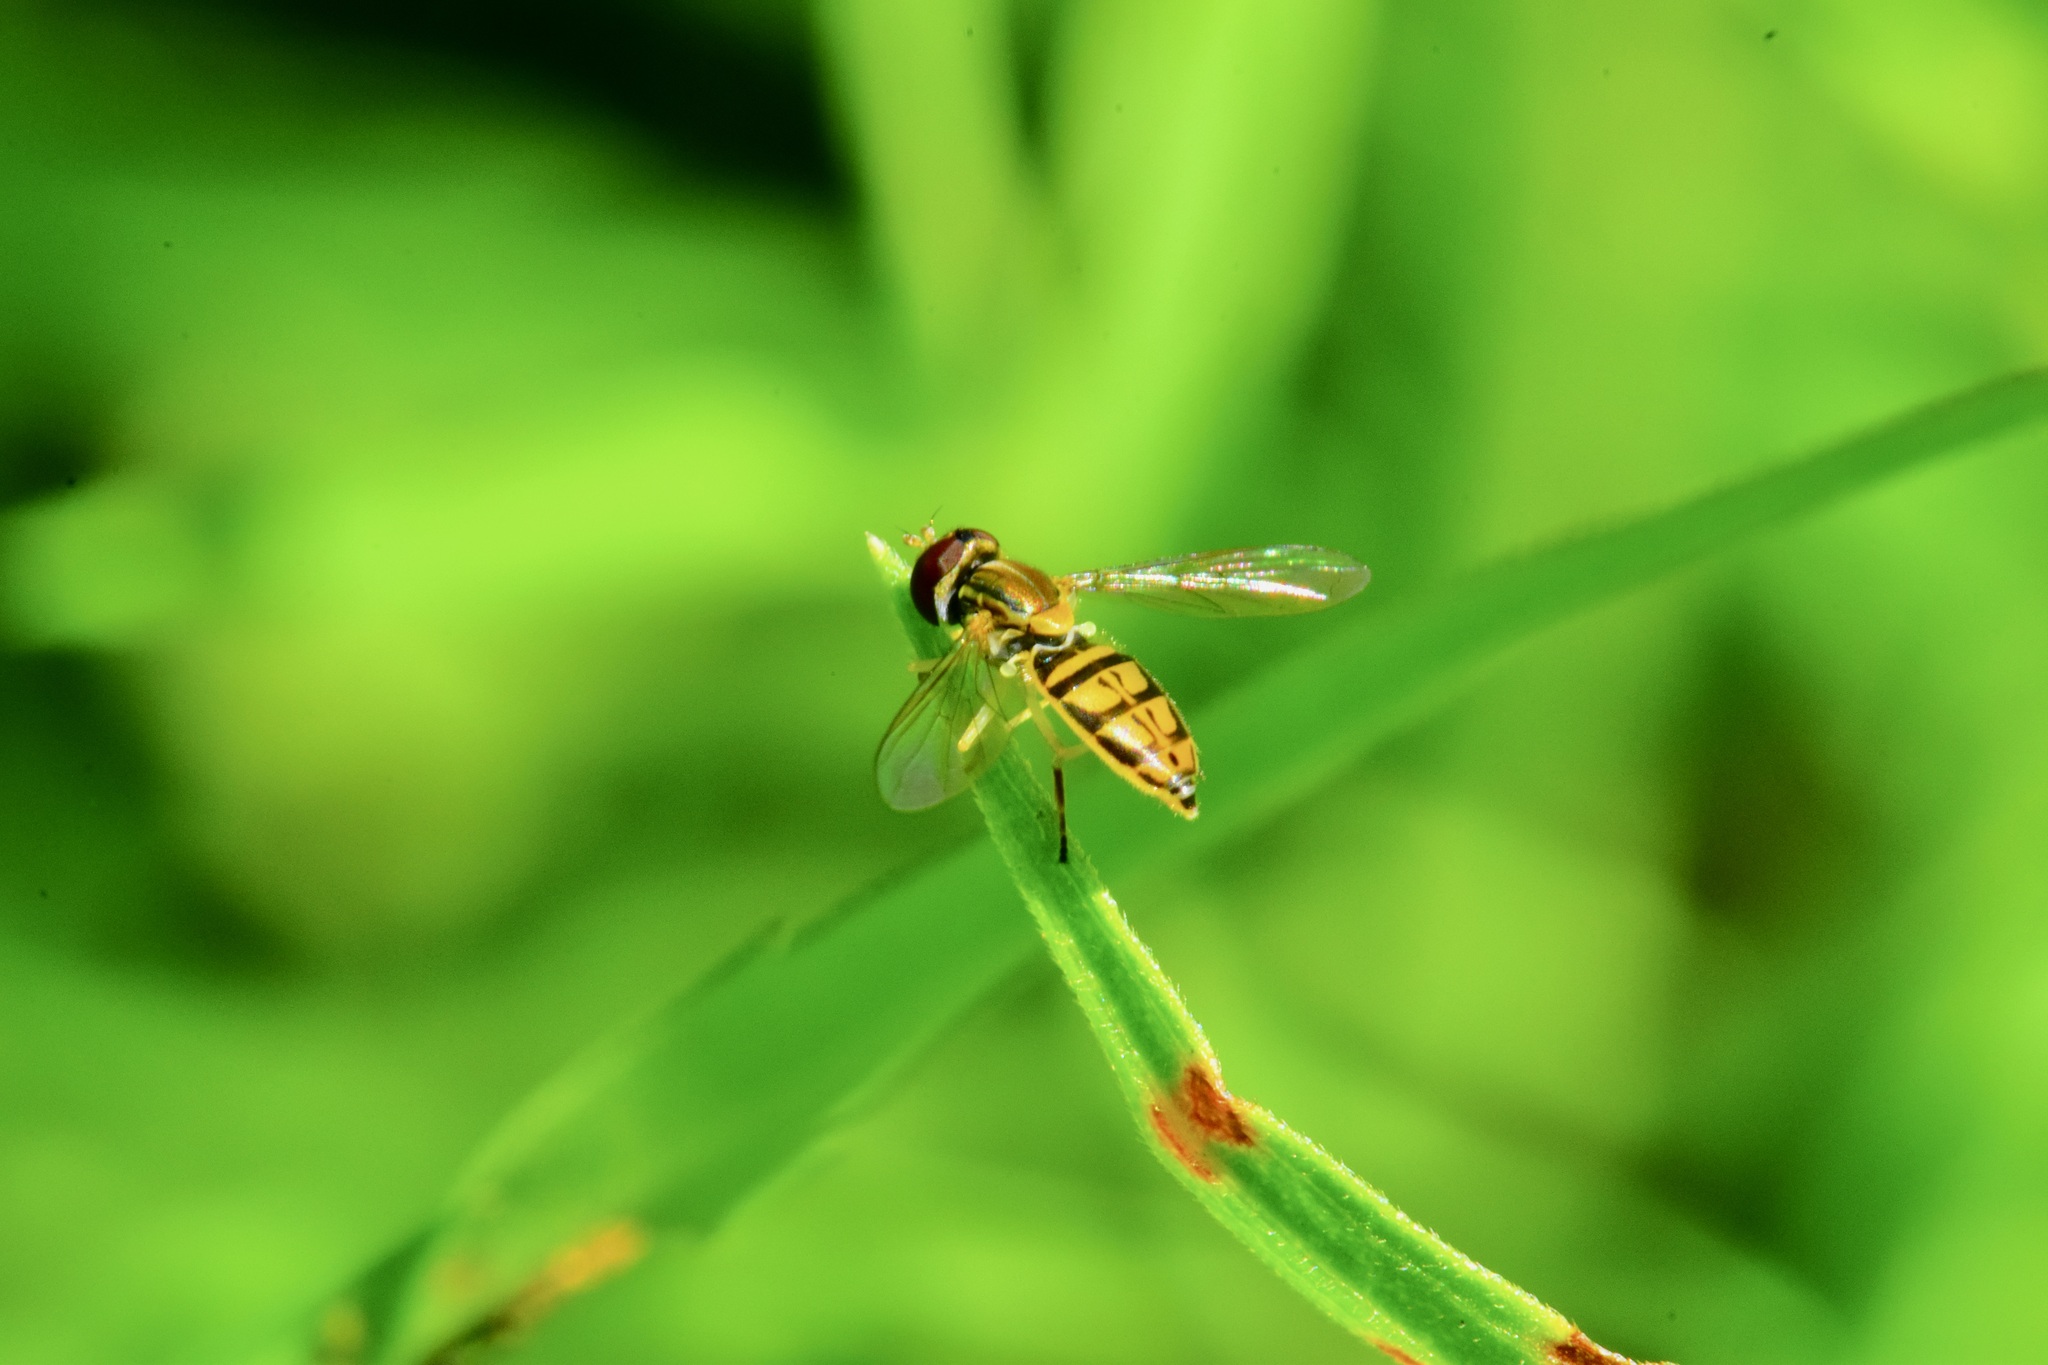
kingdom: Animalia
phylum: Arthropoda
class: Insecta
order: Diptera
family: Syrphidae
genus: Toxomerus
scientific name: Toxomerus marginatus
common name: Syrphid fly
